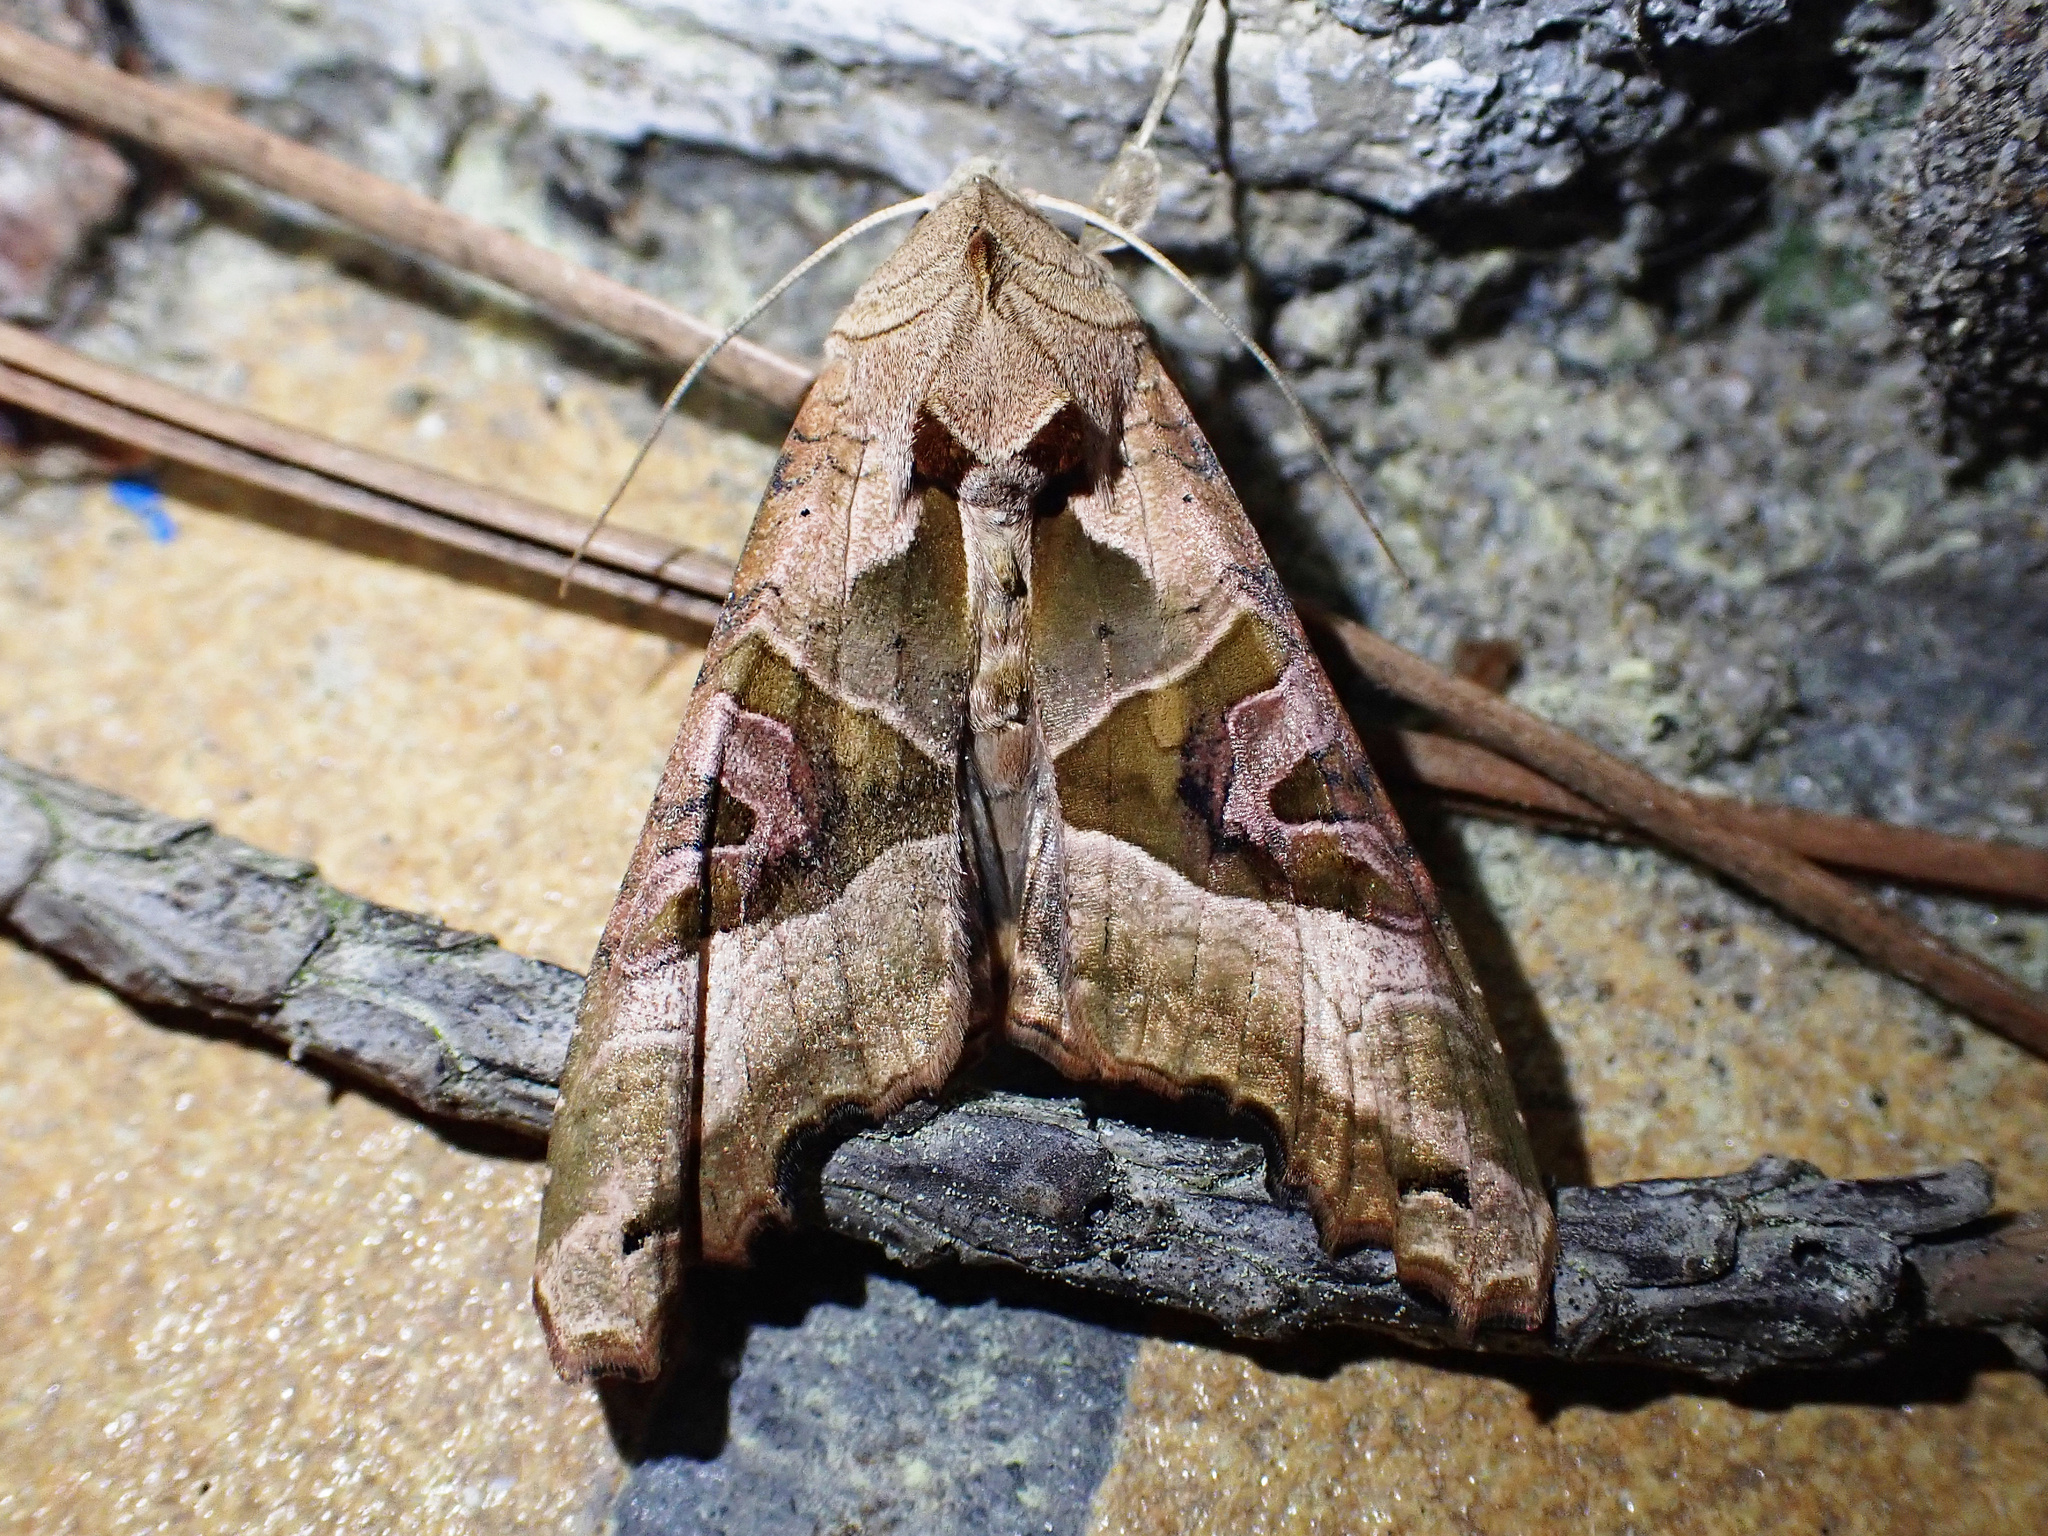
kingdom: Animalia
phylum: Arthropoda
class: Insecta
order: Lepidoptera
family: Noctuidae
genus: Phlogophora
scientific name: Phlogophora meticulosa
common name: Angle shades
